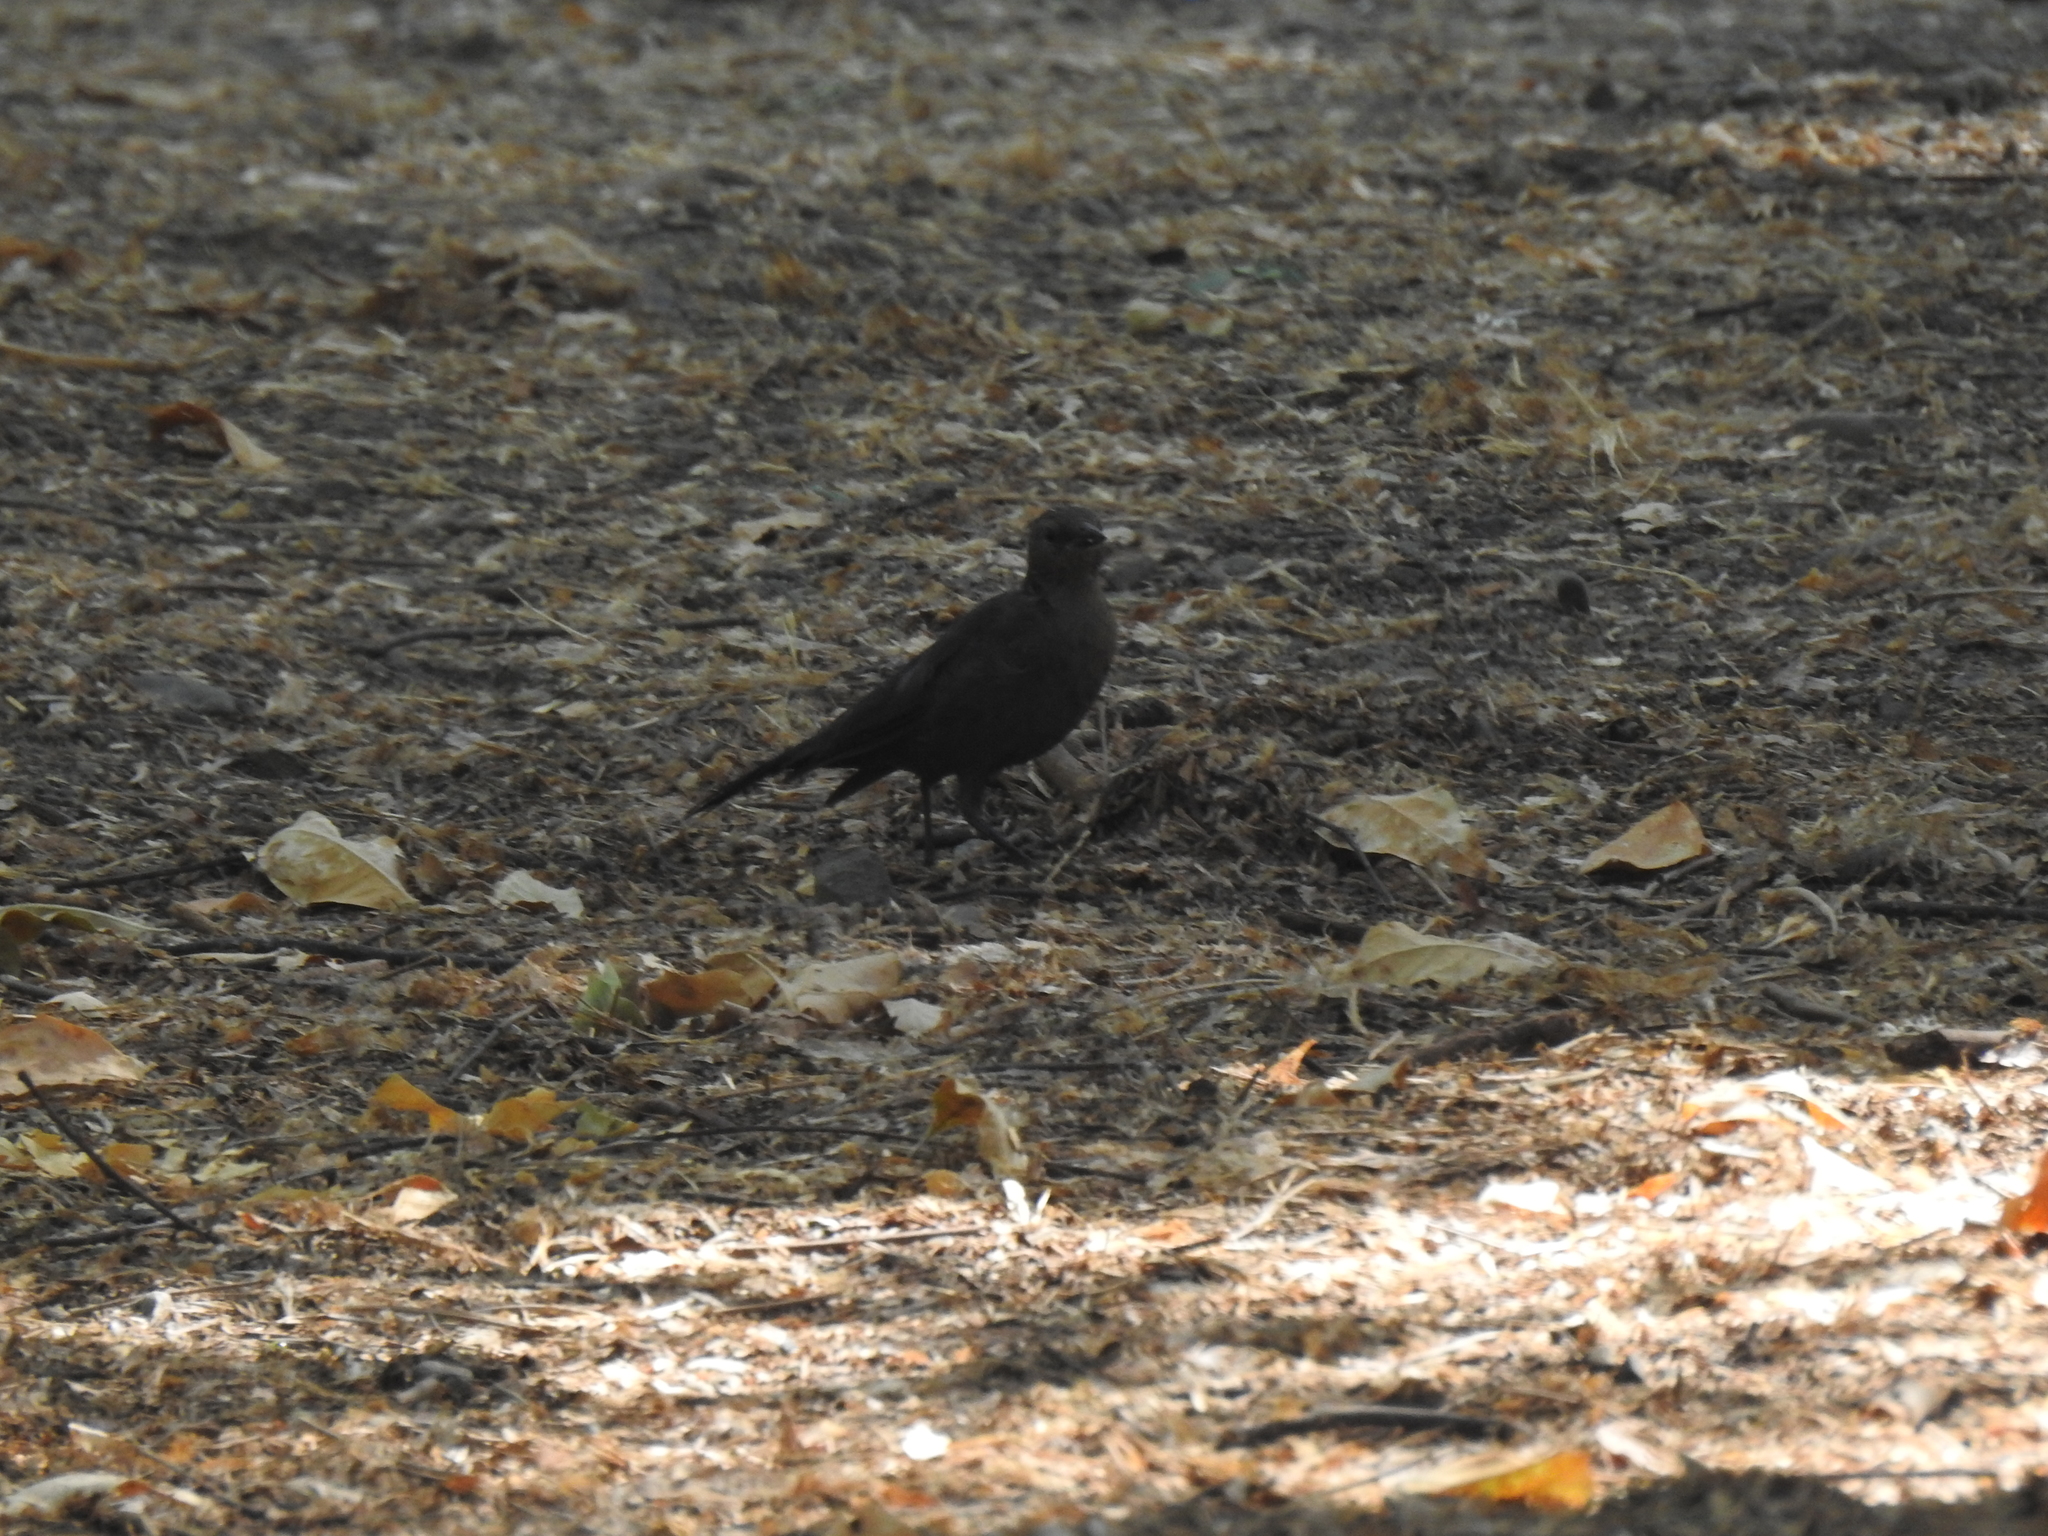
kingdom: Animalia
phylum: Chordata
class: Aves
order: Passeriformes
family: Icteridae
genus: Euphagus
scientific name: Euphagus cyanocephalus
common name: Brewer's blackbird
